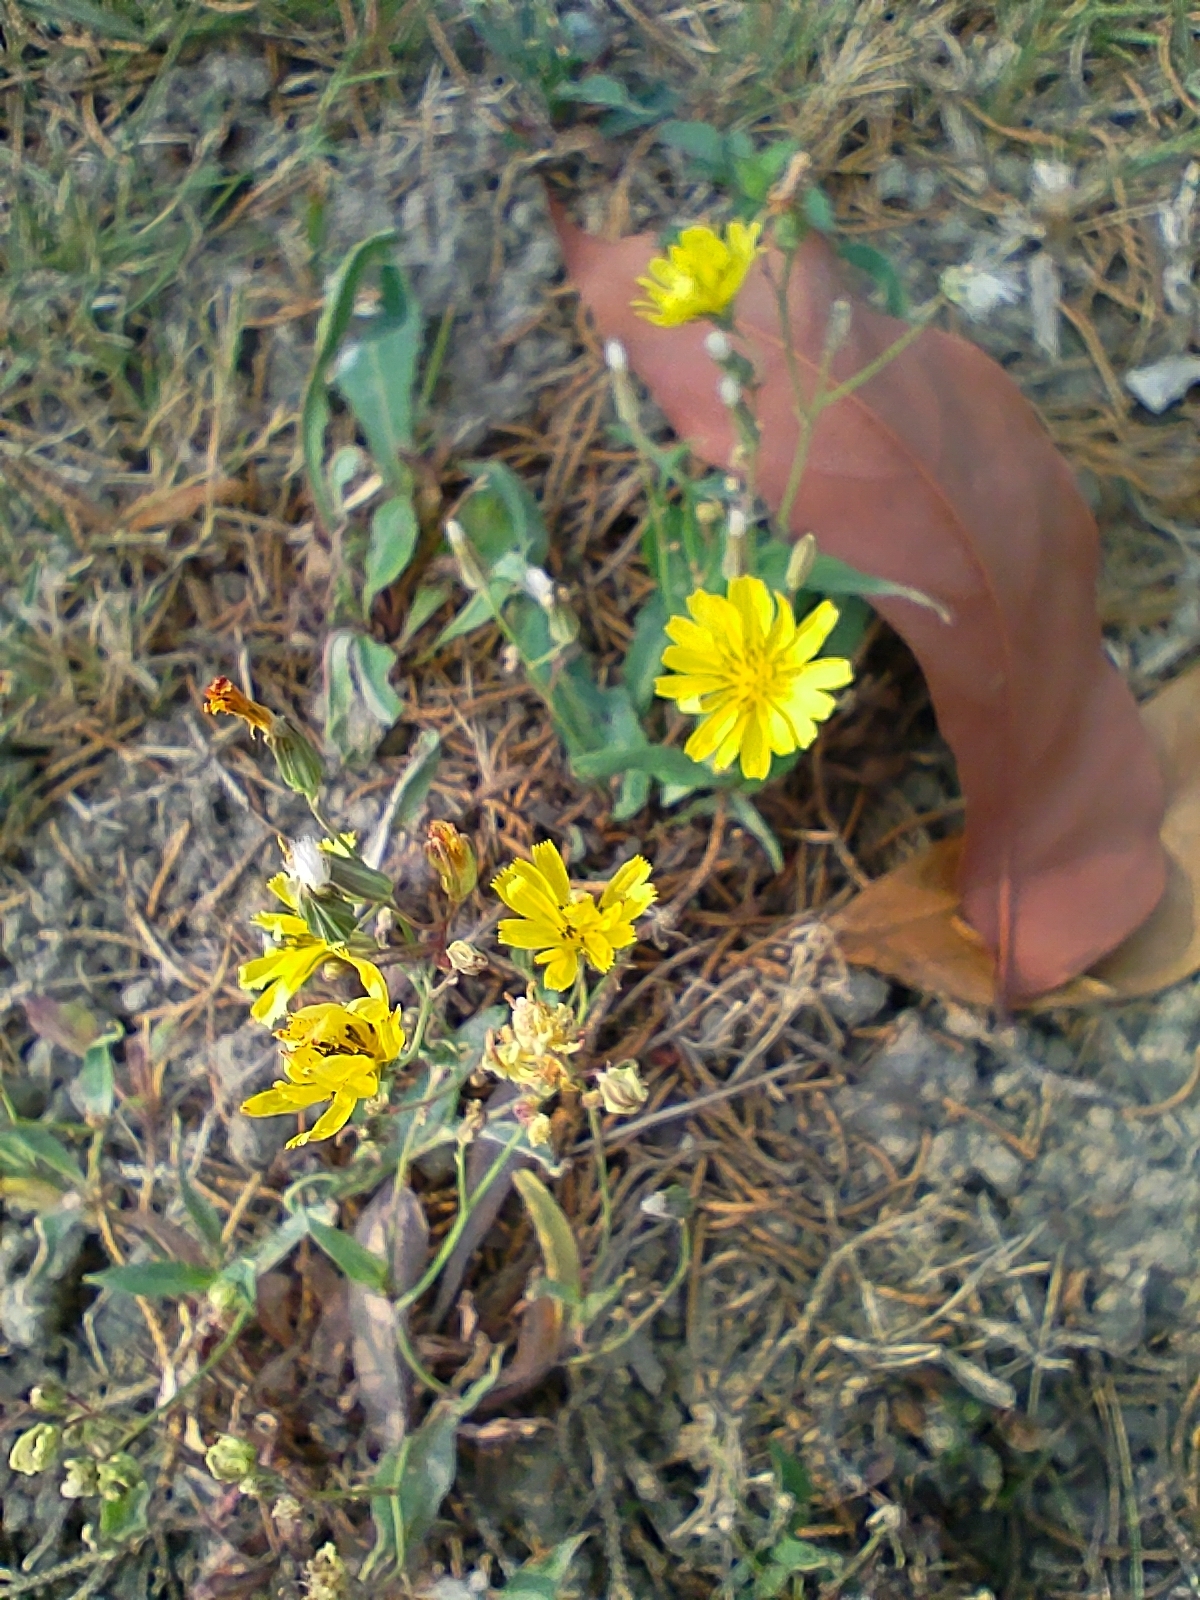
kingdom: Plantae
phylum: Tracheophyta
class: Magnoliopsida
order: Asterales
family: Asteraceae
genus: Ixeris
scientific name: Ixeris chinensis
